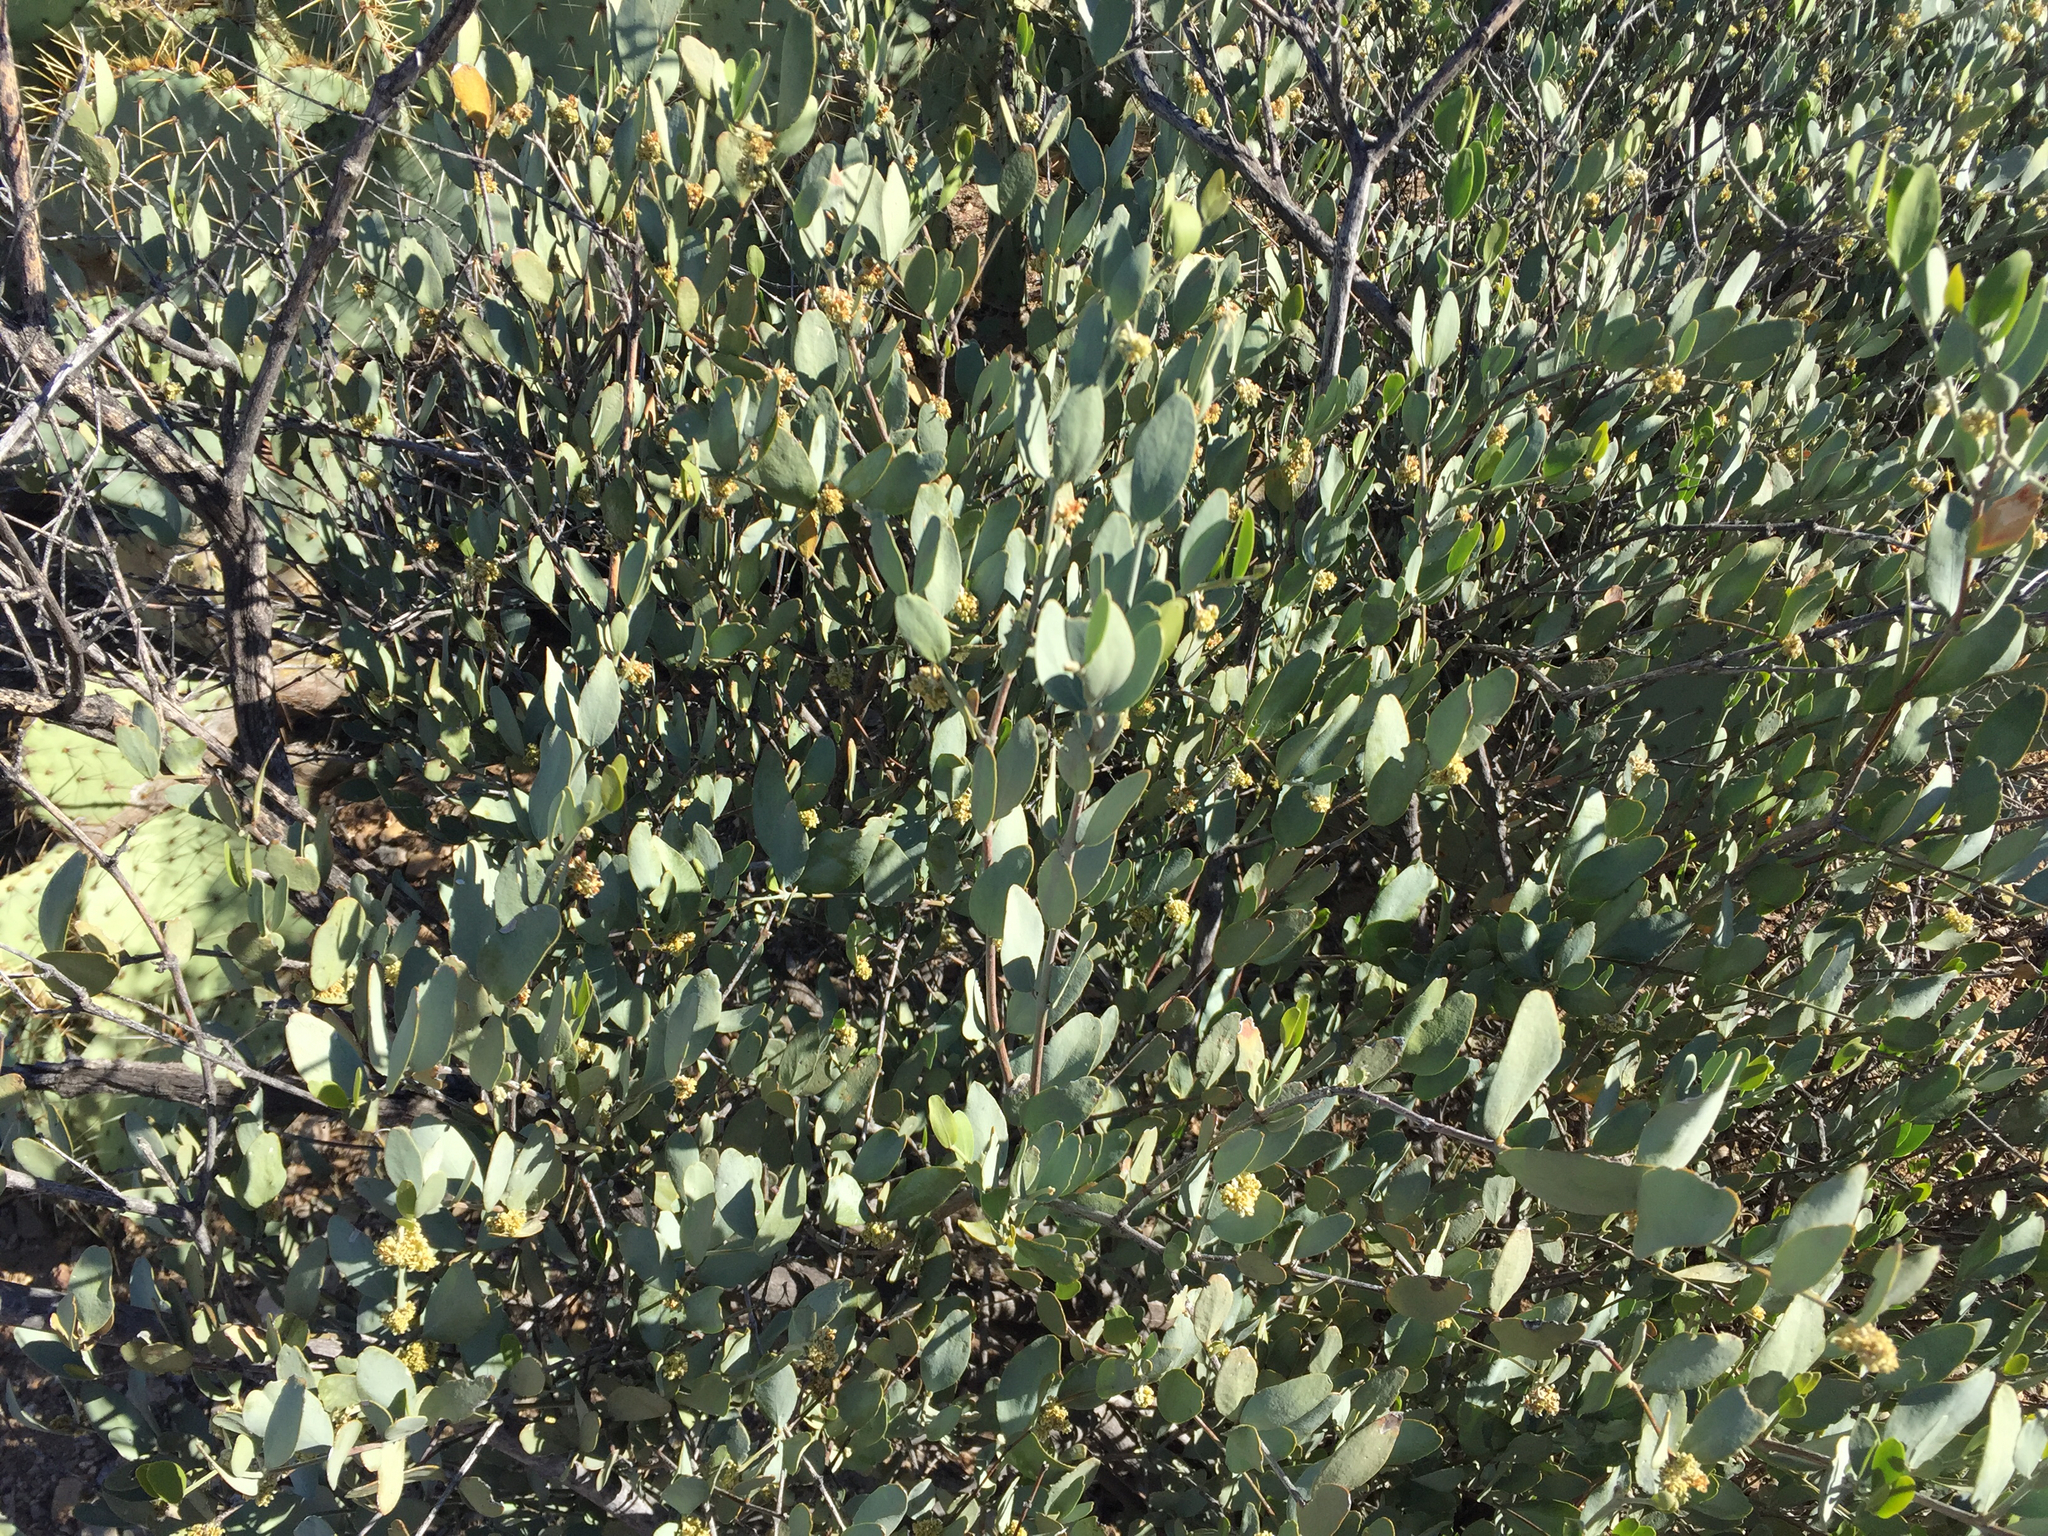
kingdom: Plantae
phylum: Tracheophyta
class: Magnoliopsida
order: Caryophyllales
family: Simmondsiaceae
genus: Simmondsia
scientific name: Simmondsia chinensis
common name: Jojoba
